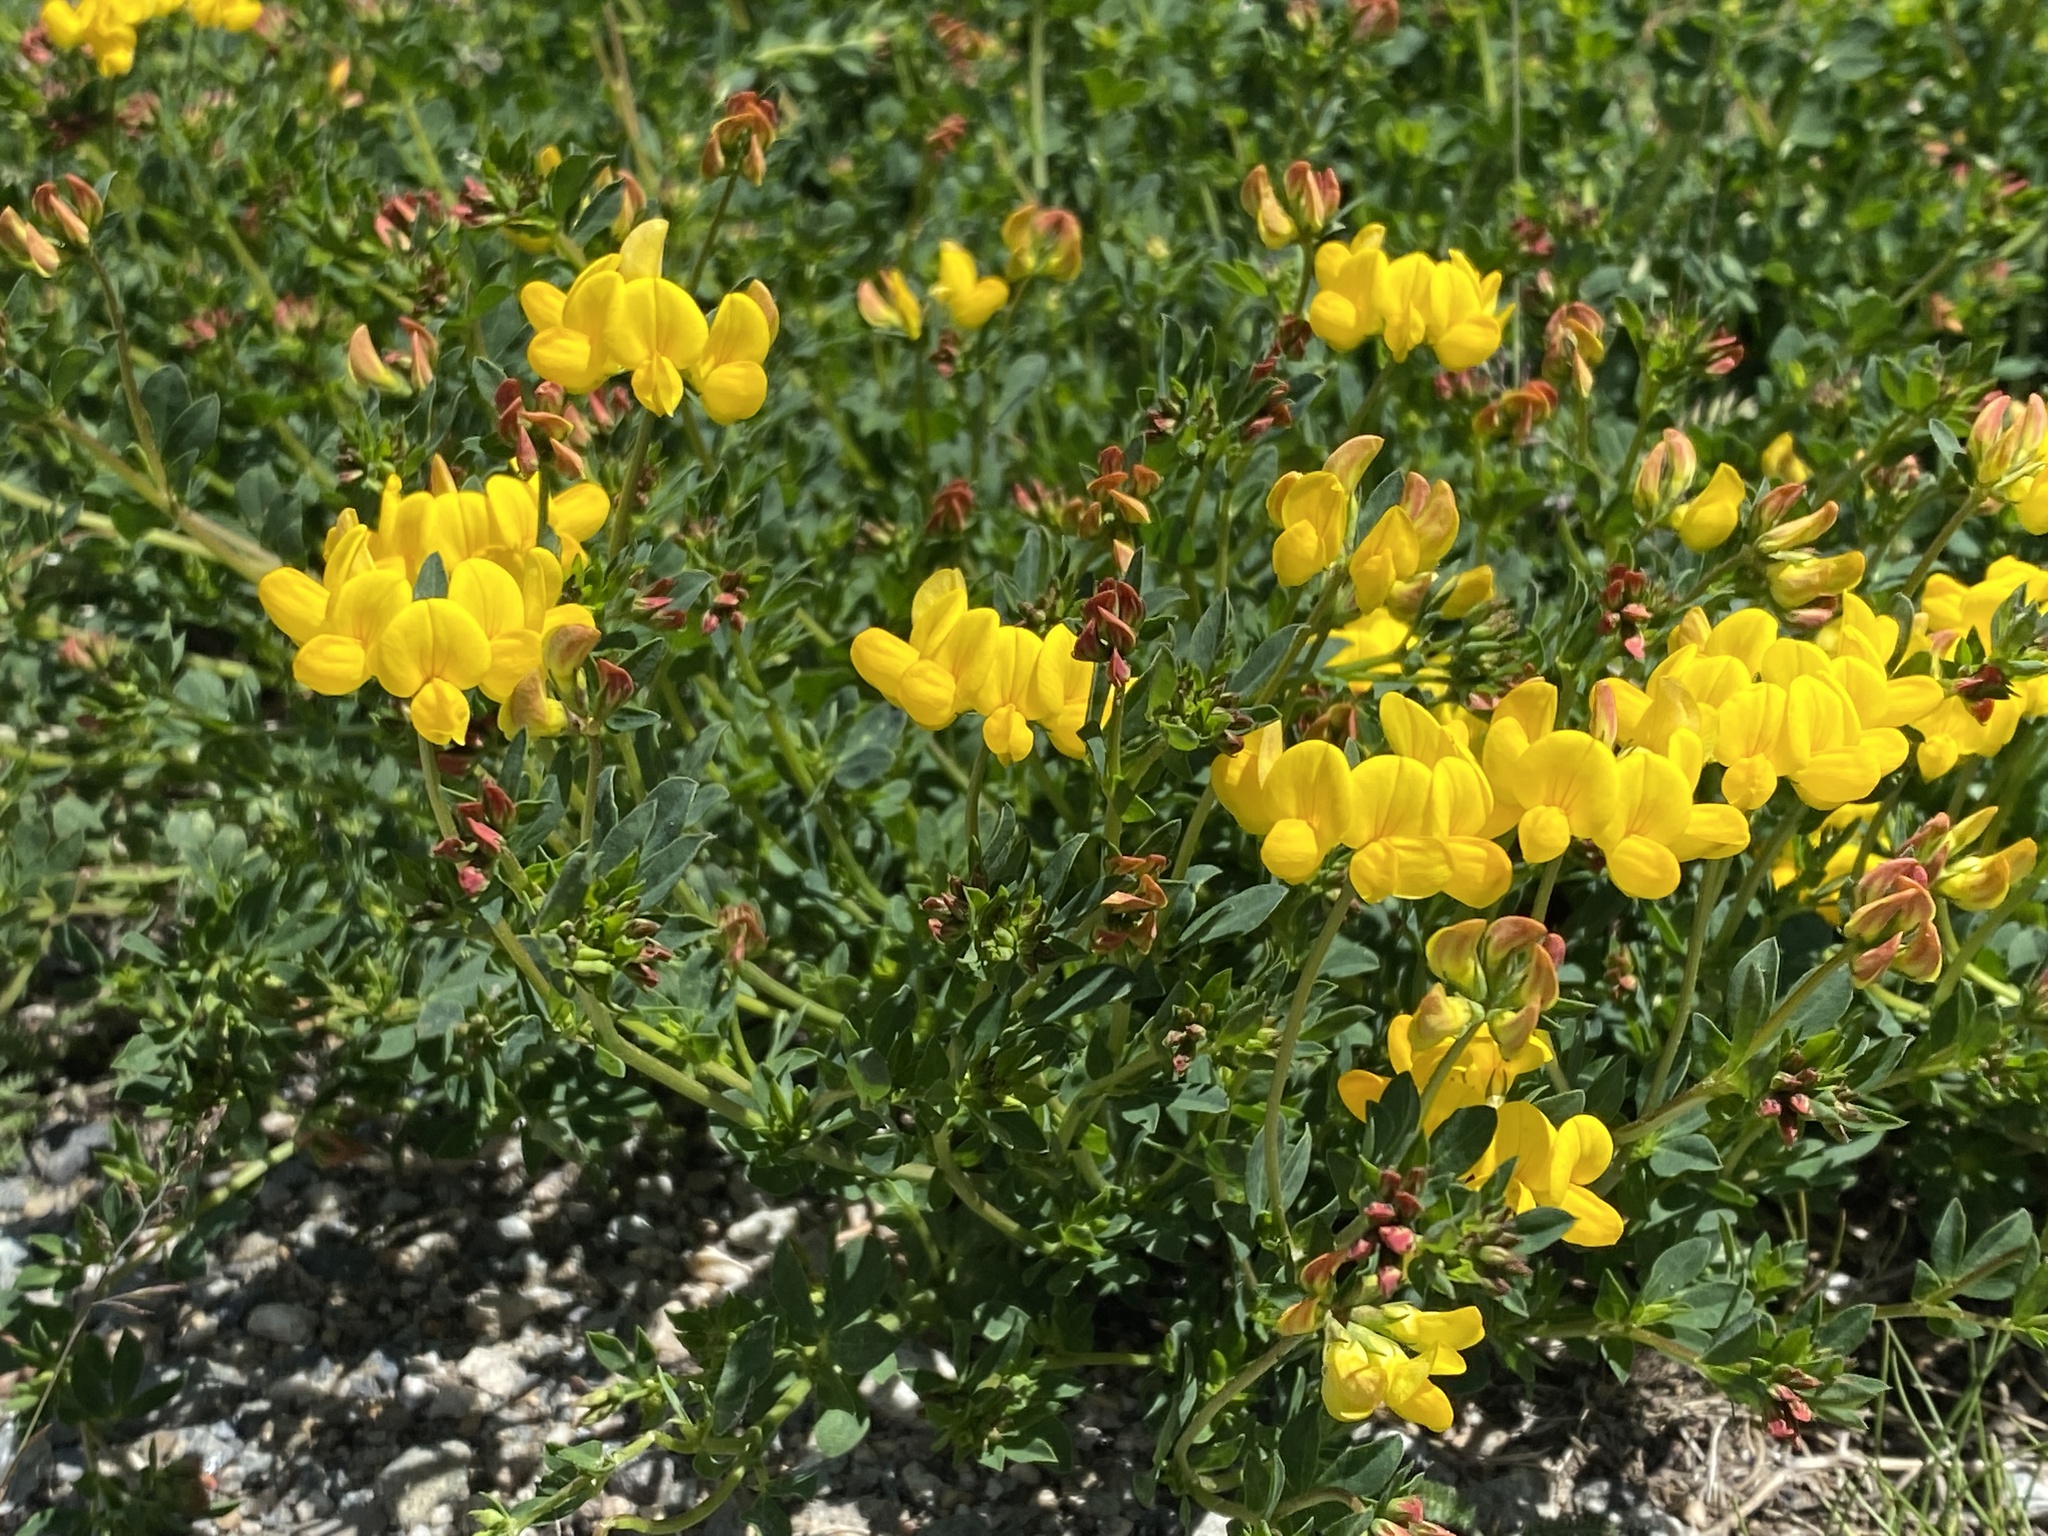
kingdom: Plantae
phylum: Tracheophyta
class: Magnoliopsida
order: Fabales
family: Fabaceae
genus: Lotus
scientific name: Lotus corniculatus
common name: Common bird's-foot-trefoil
